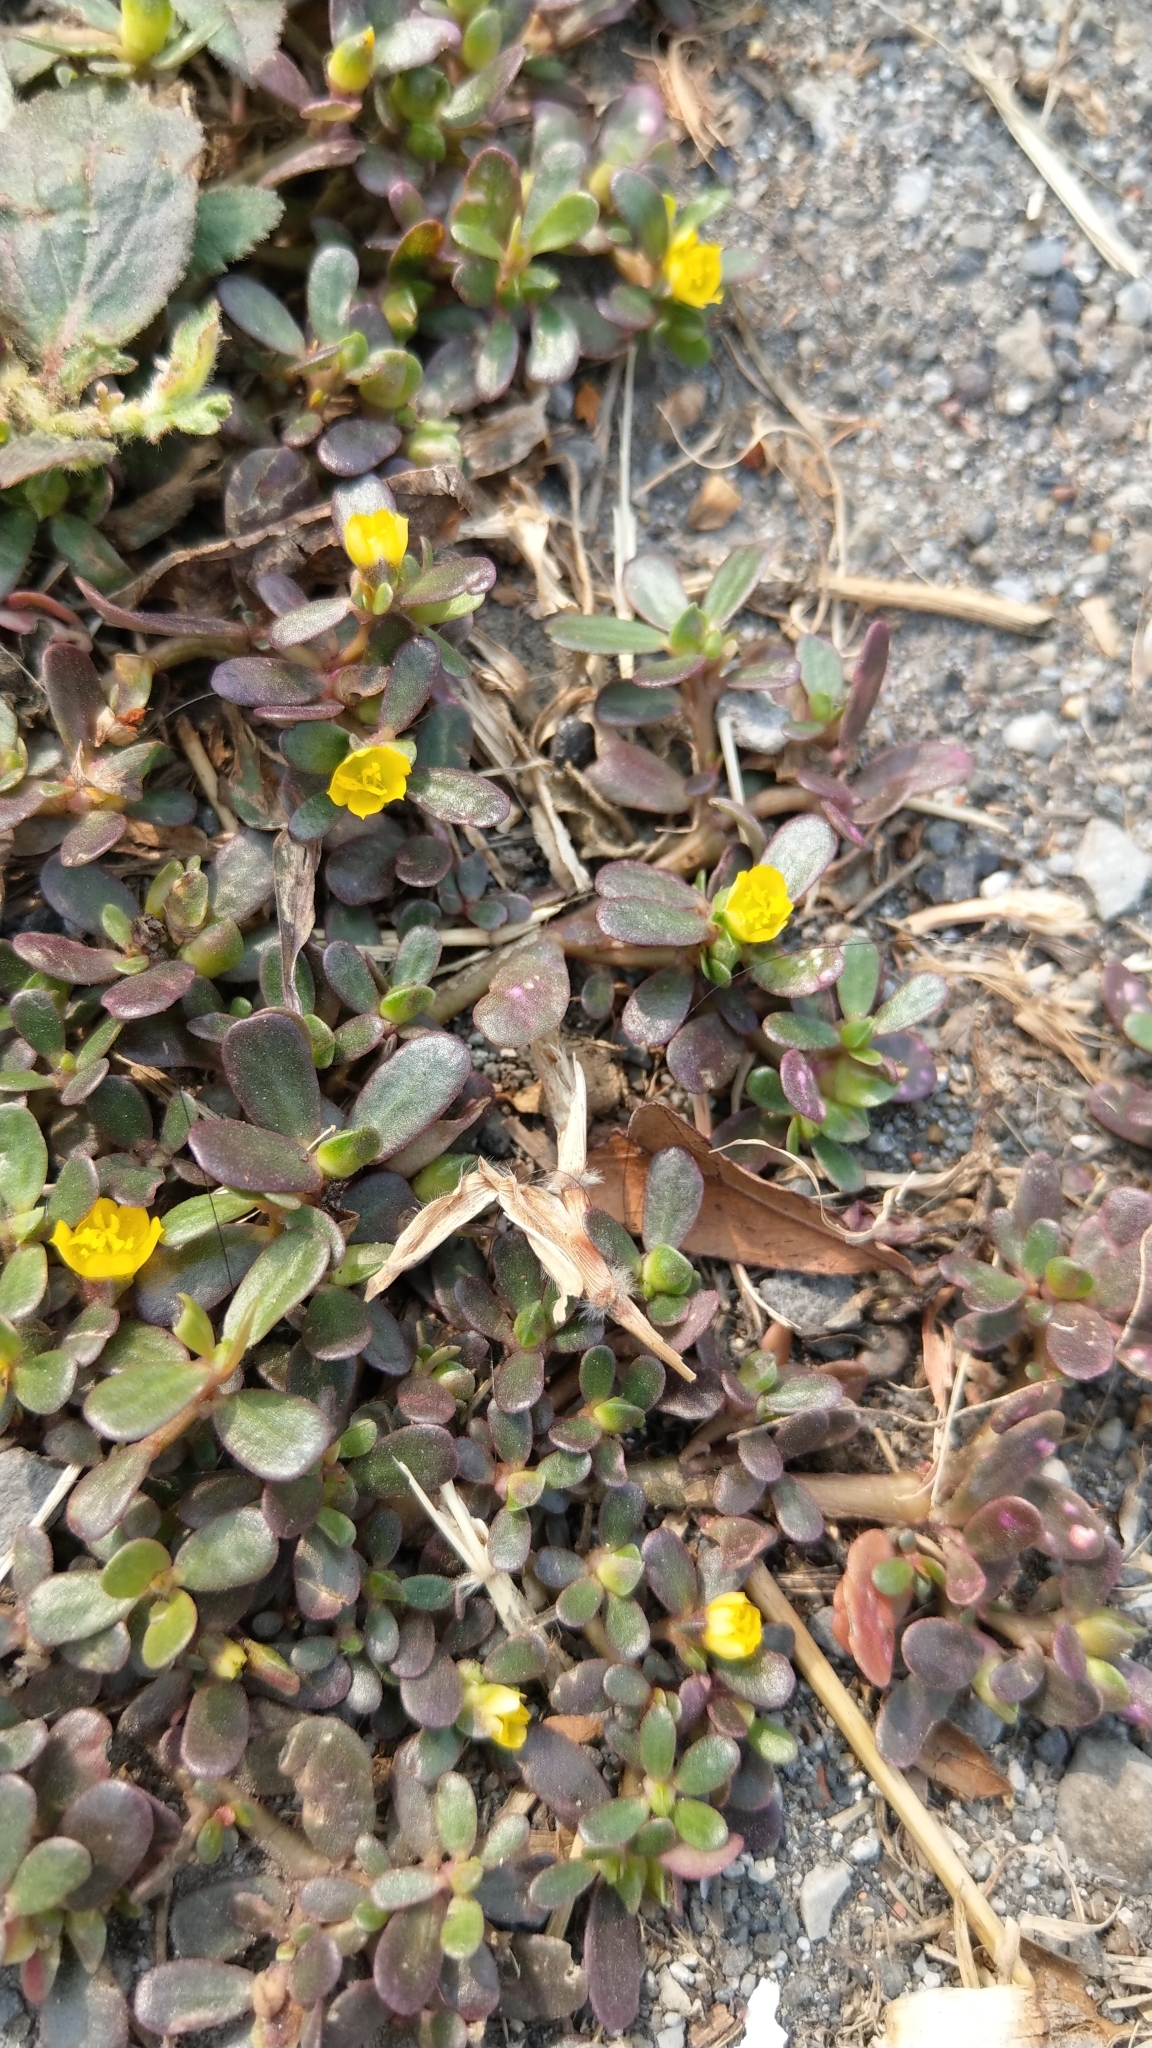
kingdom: Plantae
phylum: Tracheophyta
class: Magnoliopsida
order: Caryophyllales
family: Portulacaceae
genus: Portulaca
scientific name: Portulaca oleracea
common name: Common purslane
